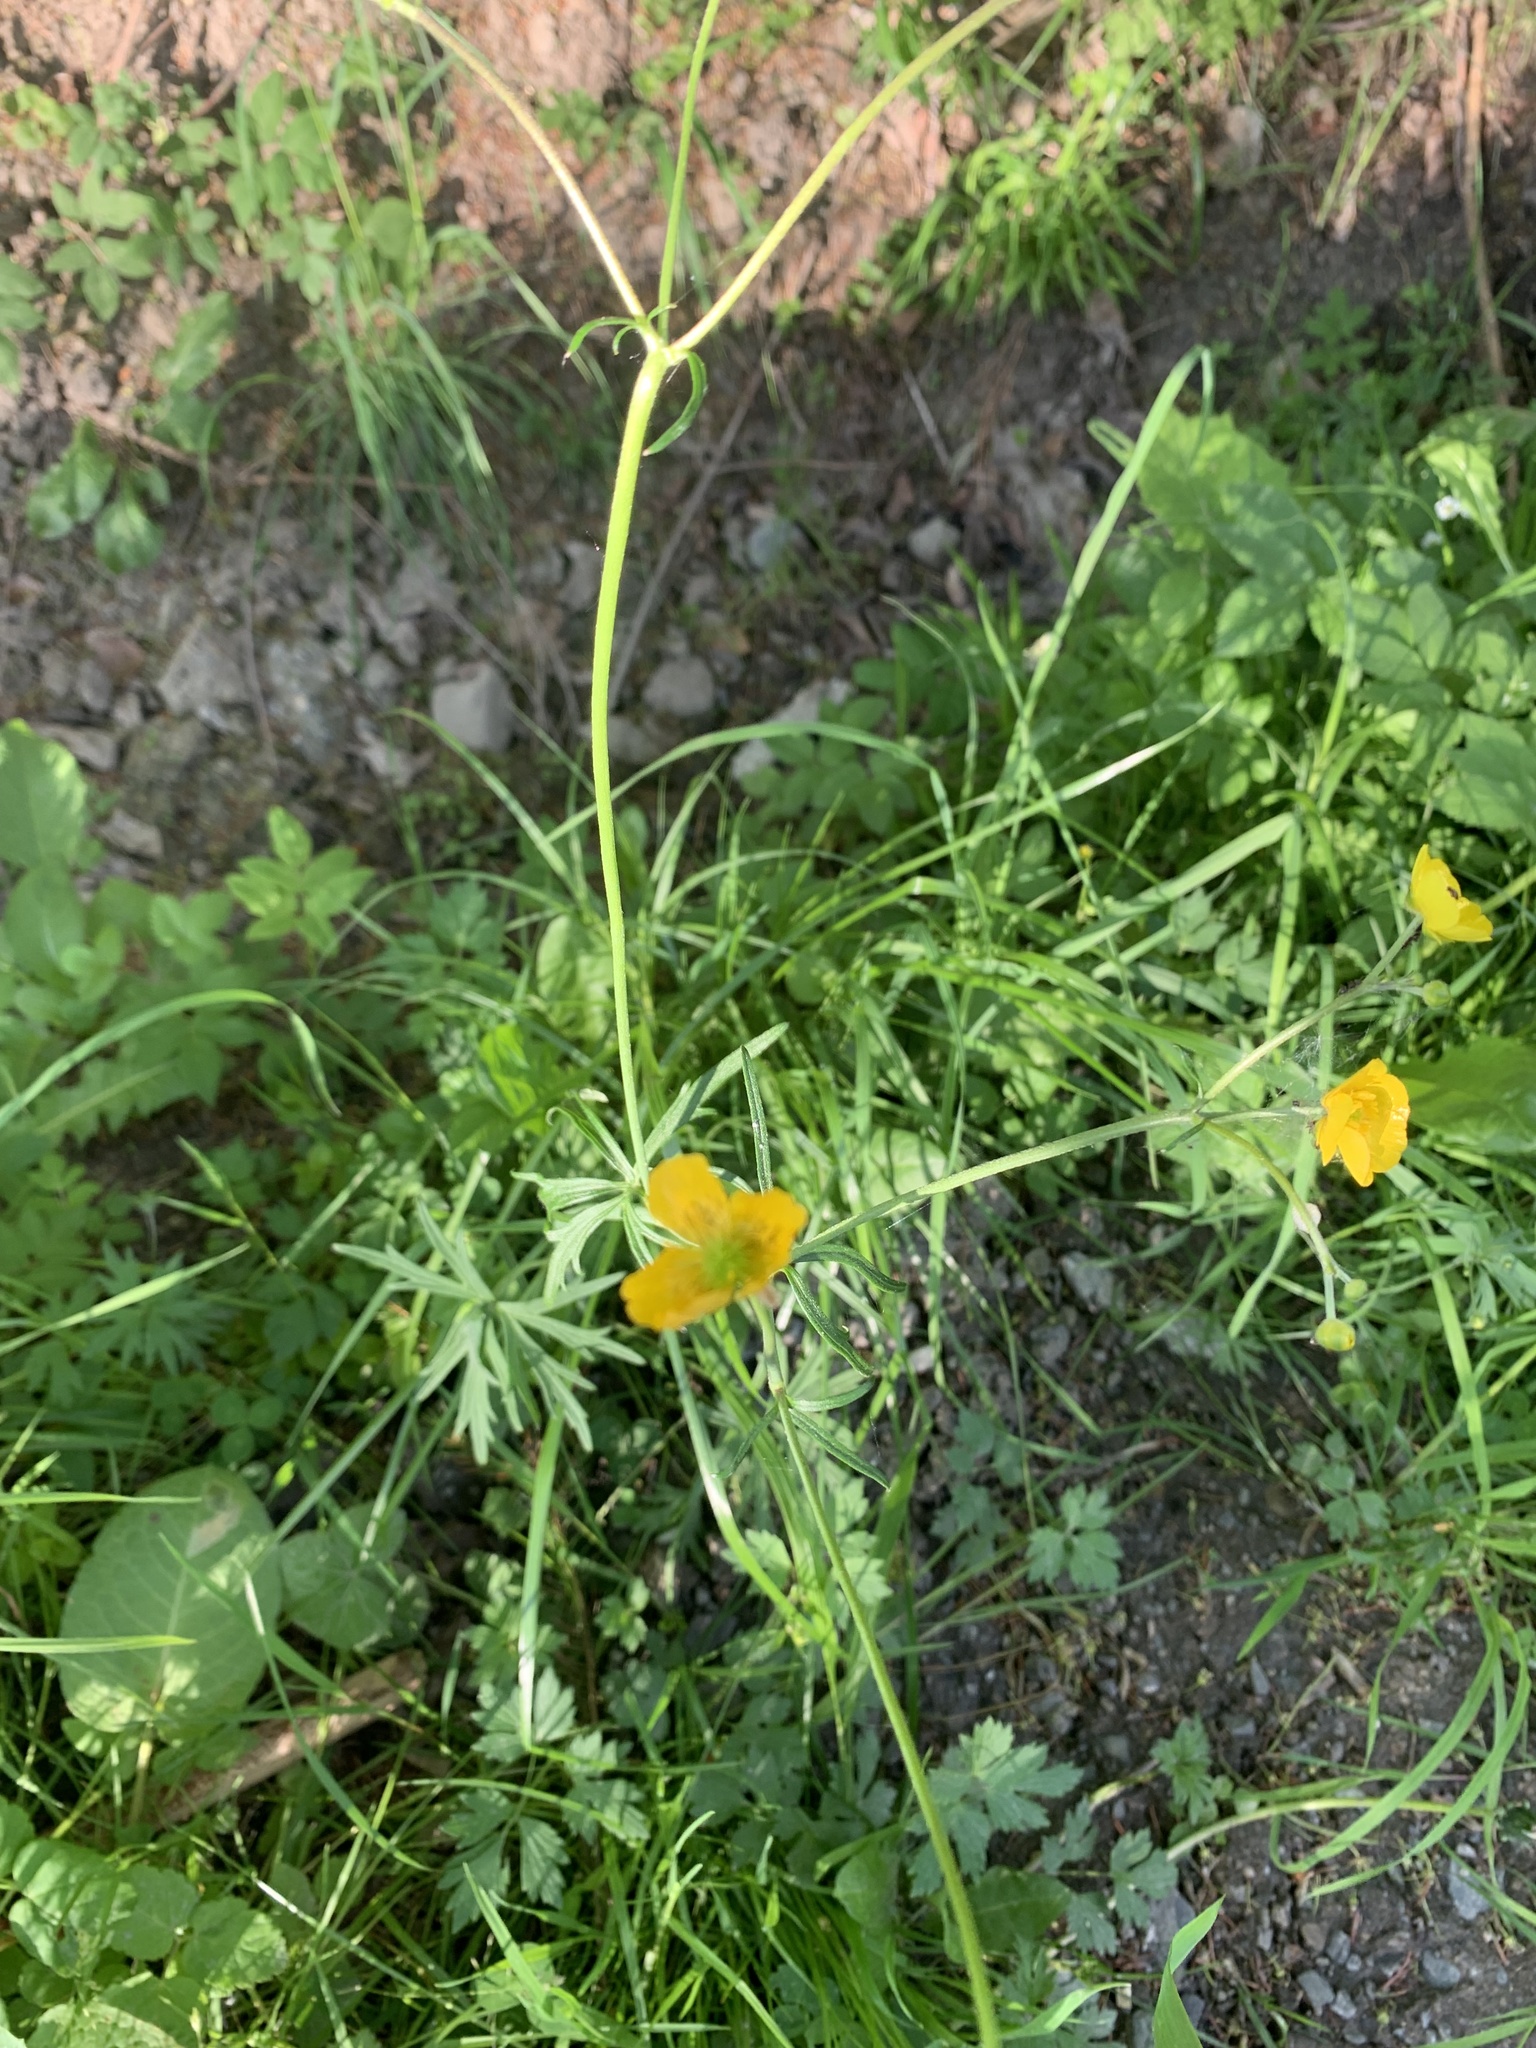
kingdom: Plantae
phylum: Tracheophyta
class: Magnoliopsida
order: Ranunculales
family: Ranunculaceae
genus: Ranunculus
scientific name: Ranunculus acris
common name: Meadow buttercup
